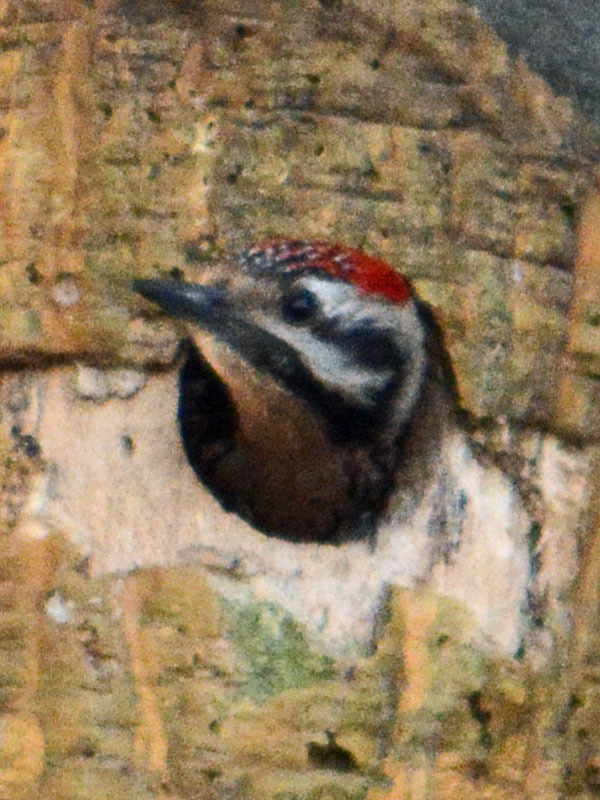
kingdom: Animalia
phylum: Chordata
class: Aves
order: Piciformes
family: Picidae
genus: Dryobates
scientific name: Dryobates scalaris
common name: Ladder-backed woodpecker
